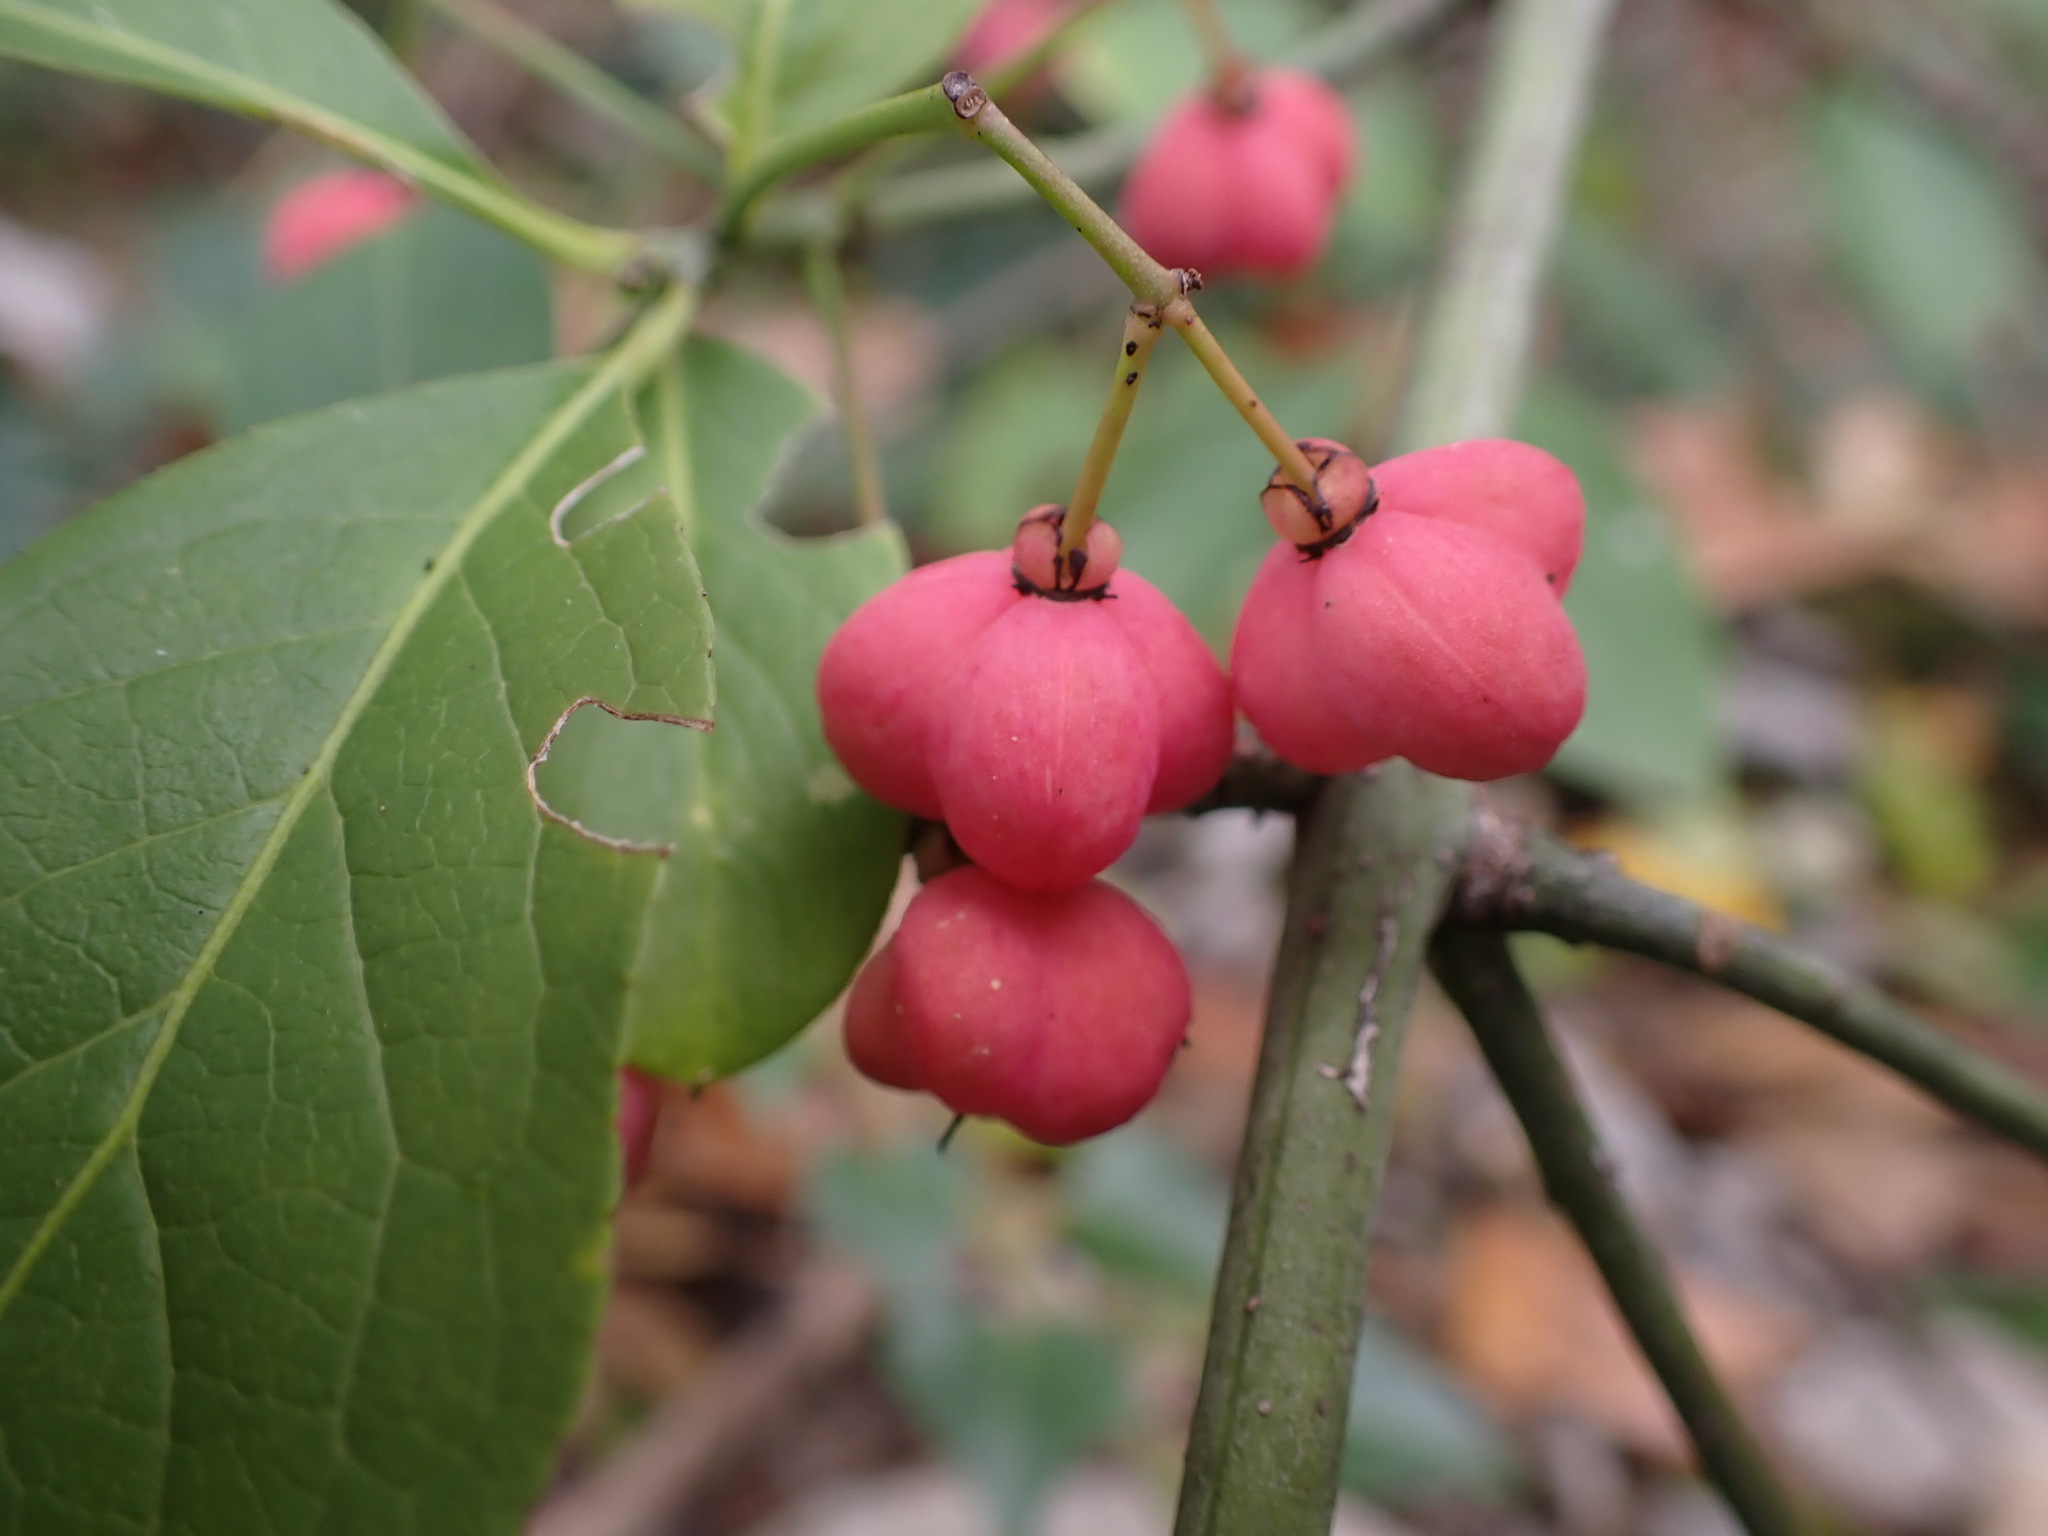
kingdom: Plantae
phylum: Tracheophyta
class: Magnoliopsida
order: Celastrales
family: Celastraceae
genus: Euonymus
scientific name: Euonymus europaeus
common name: Spindle
